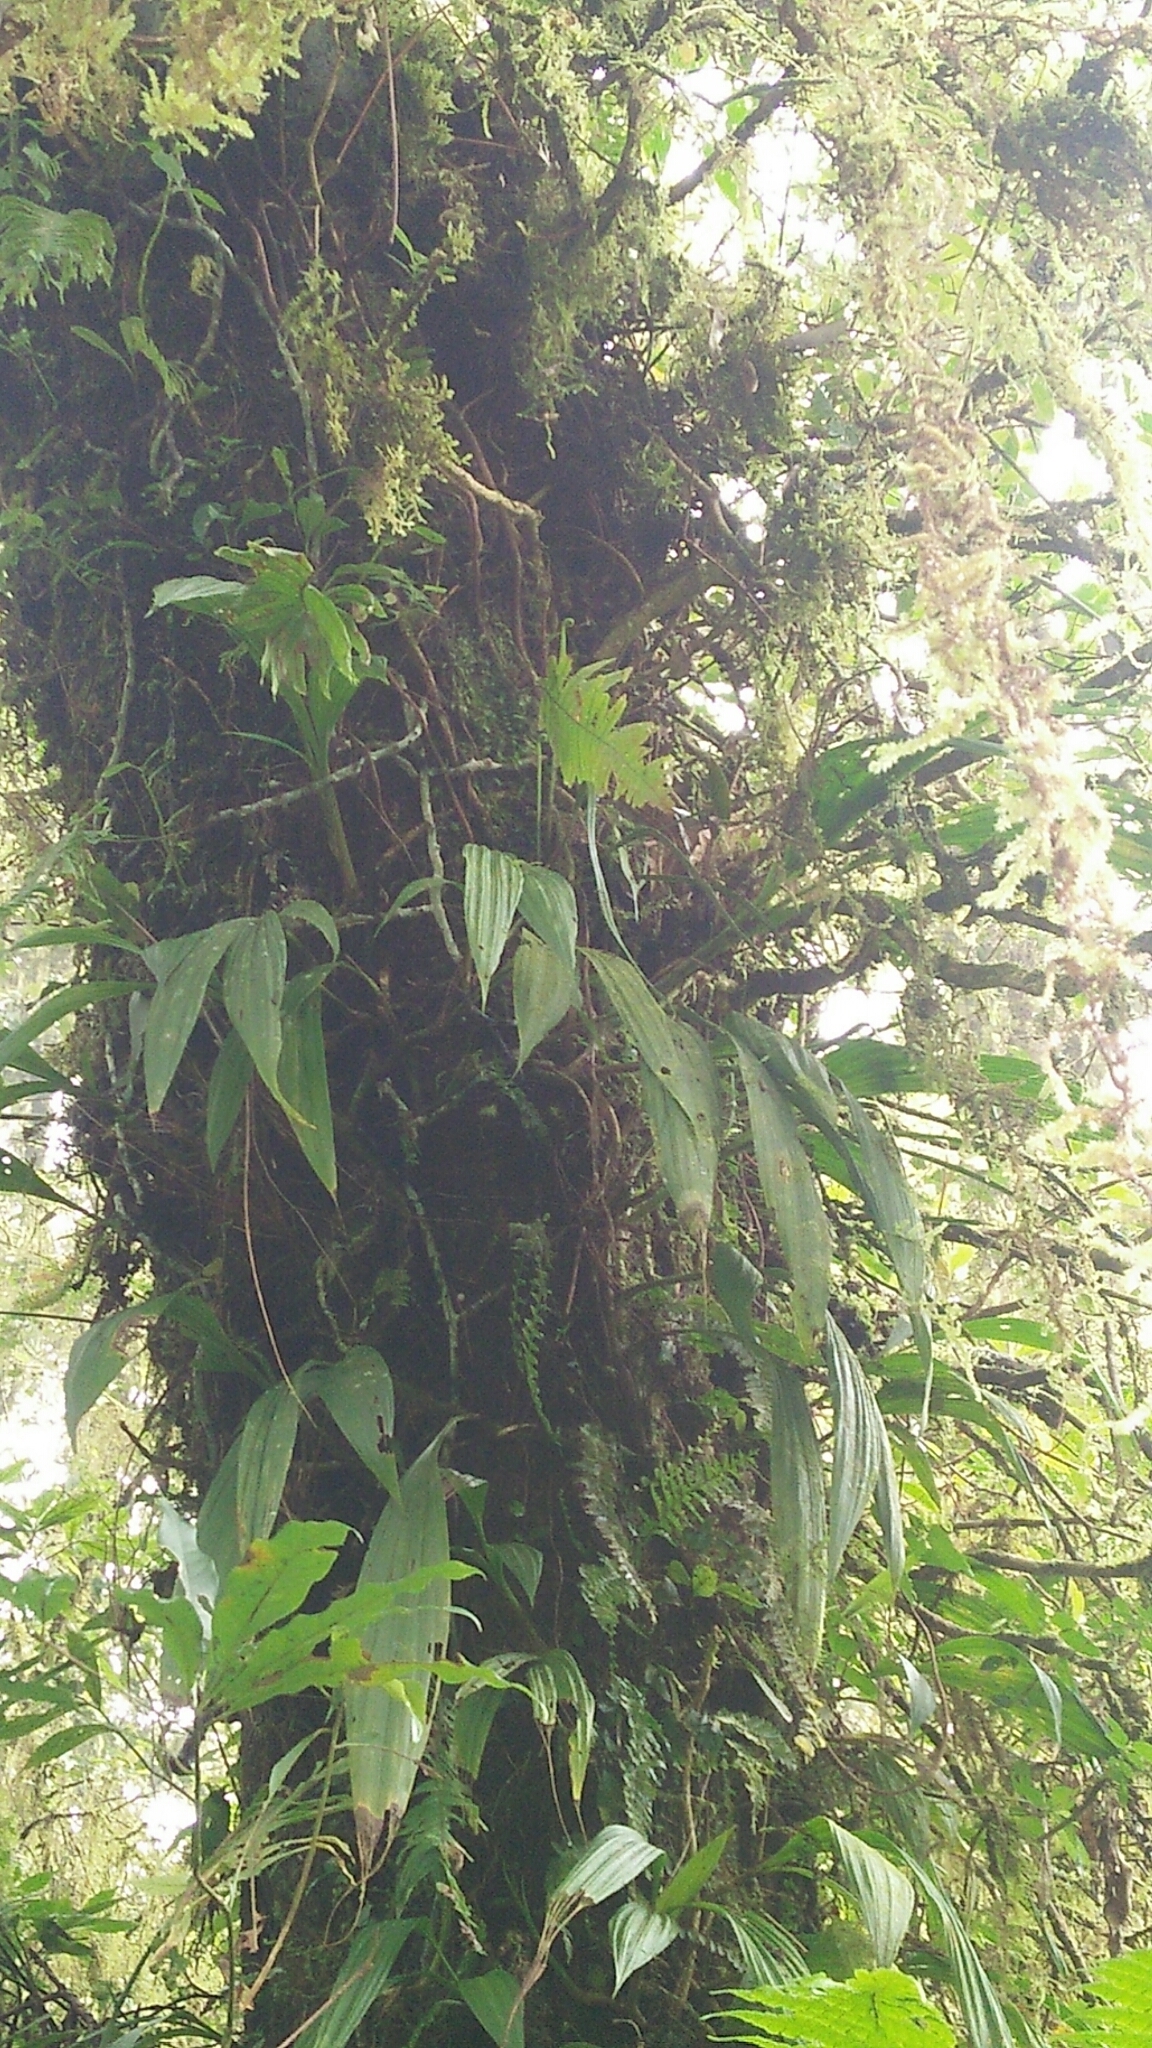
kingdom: Plantae
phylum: Tracheophyta
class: Liliopsida
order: Asparagales
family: Orchidaceae
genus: Calanthe
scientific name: Calanthe densiflora
